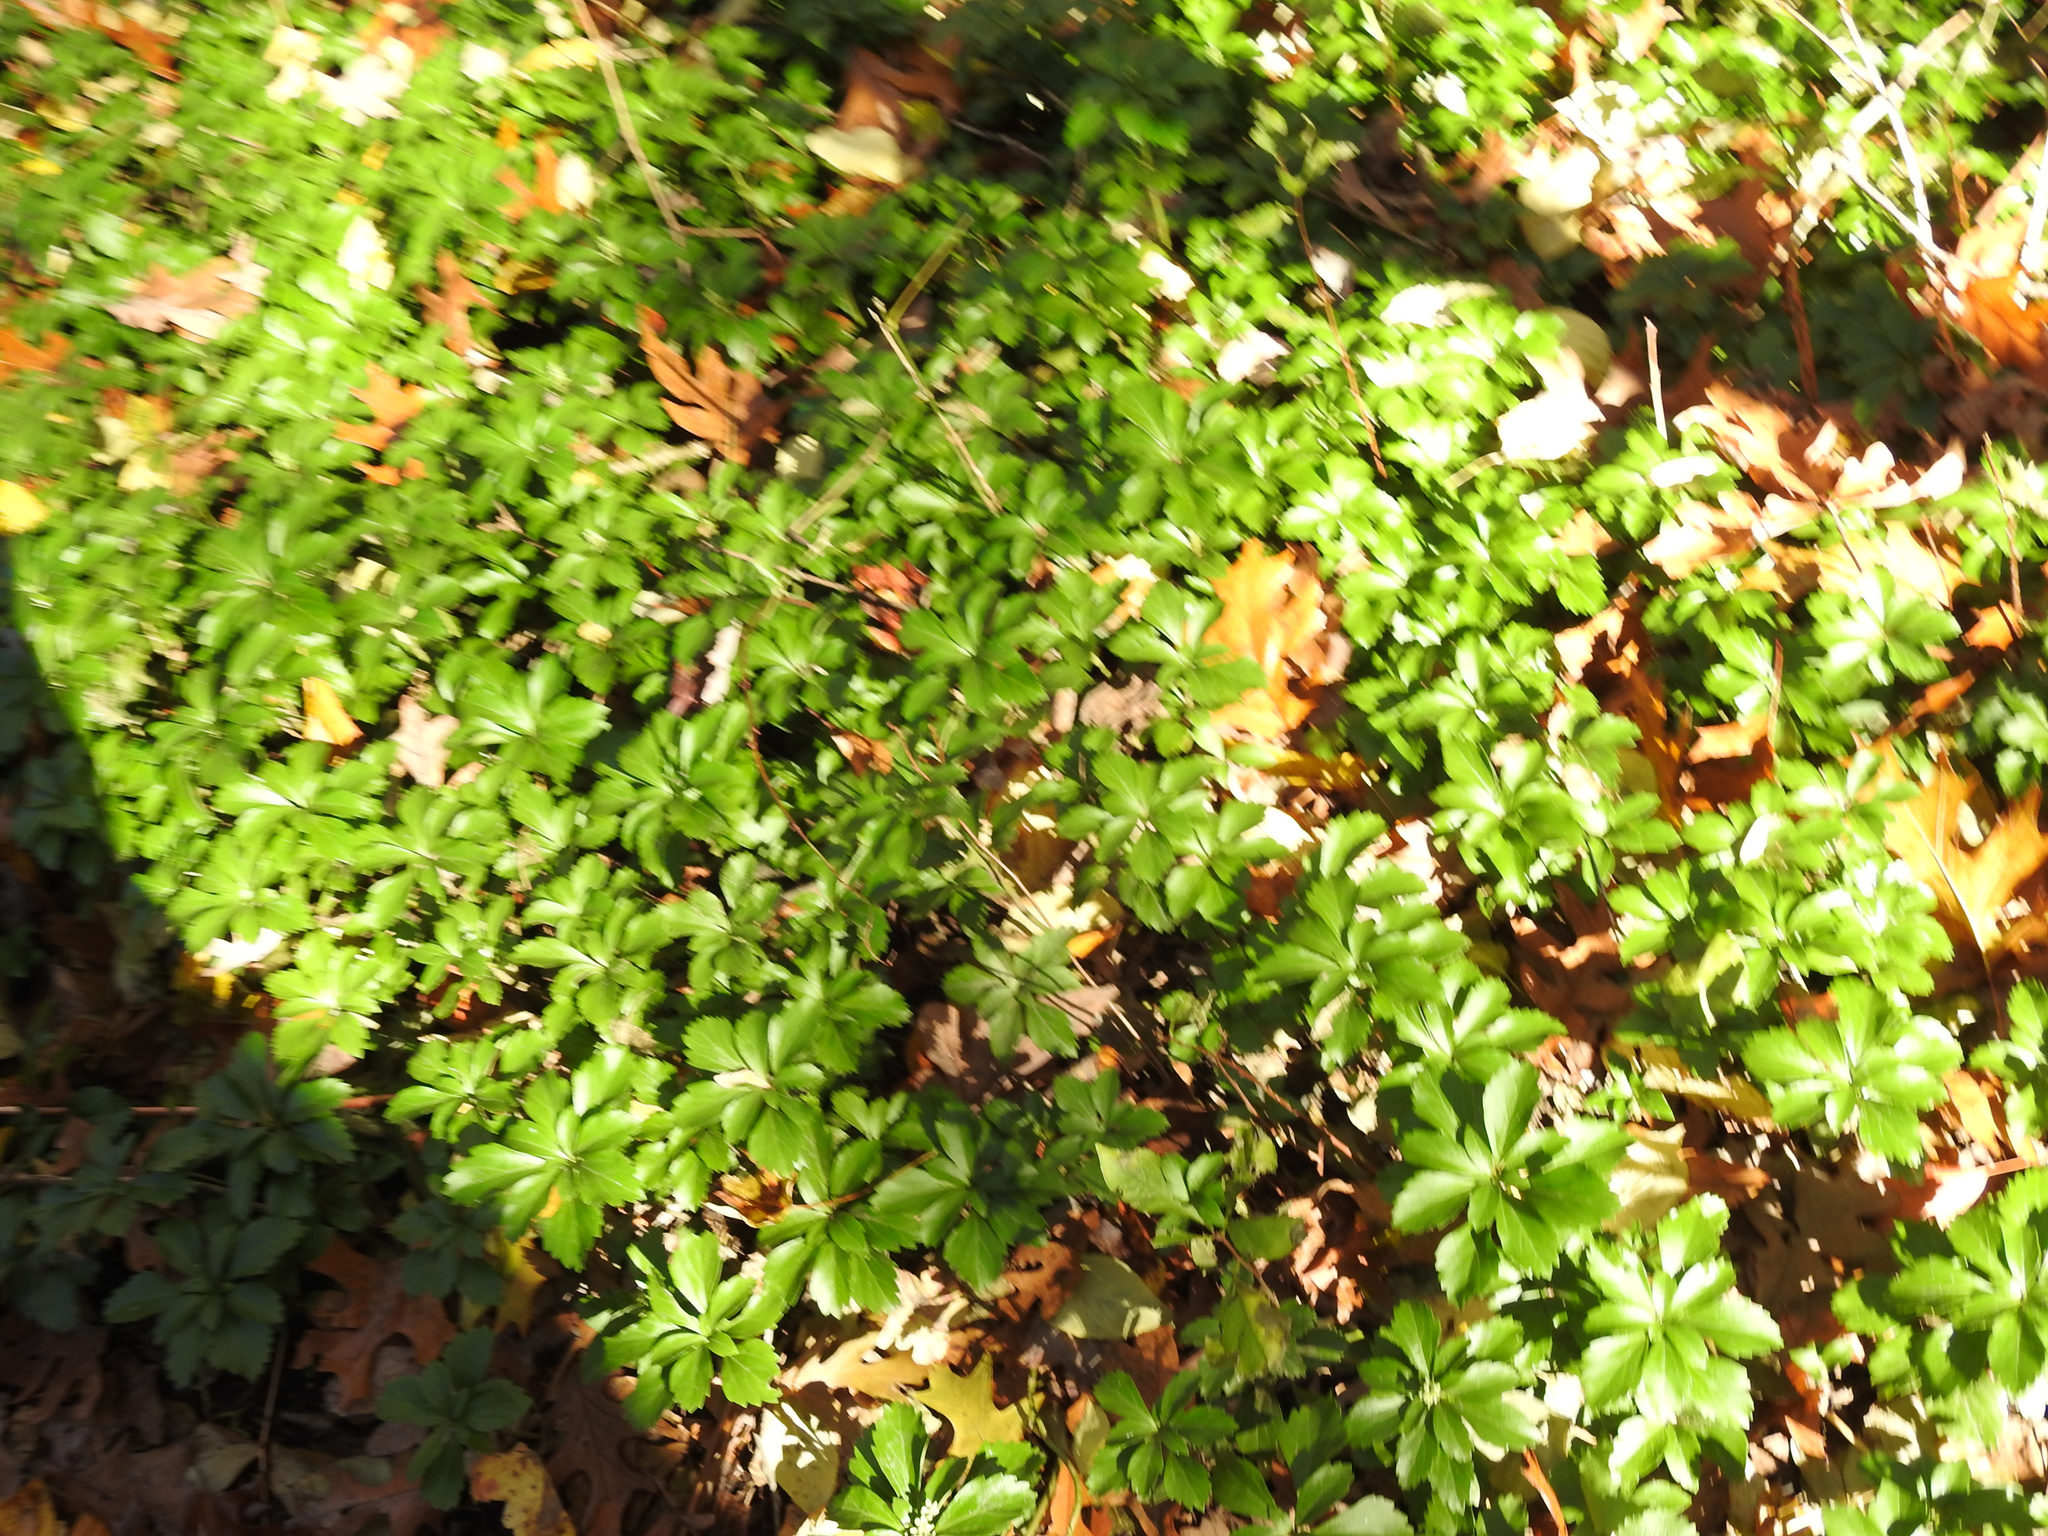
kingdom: Plantae
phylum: Tracheophyta
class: Magnoliopsida
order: Buxales
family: Buxaceae
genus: Pachysandra
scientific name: Pachysandra terminalis
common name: Japanese pachysandra
